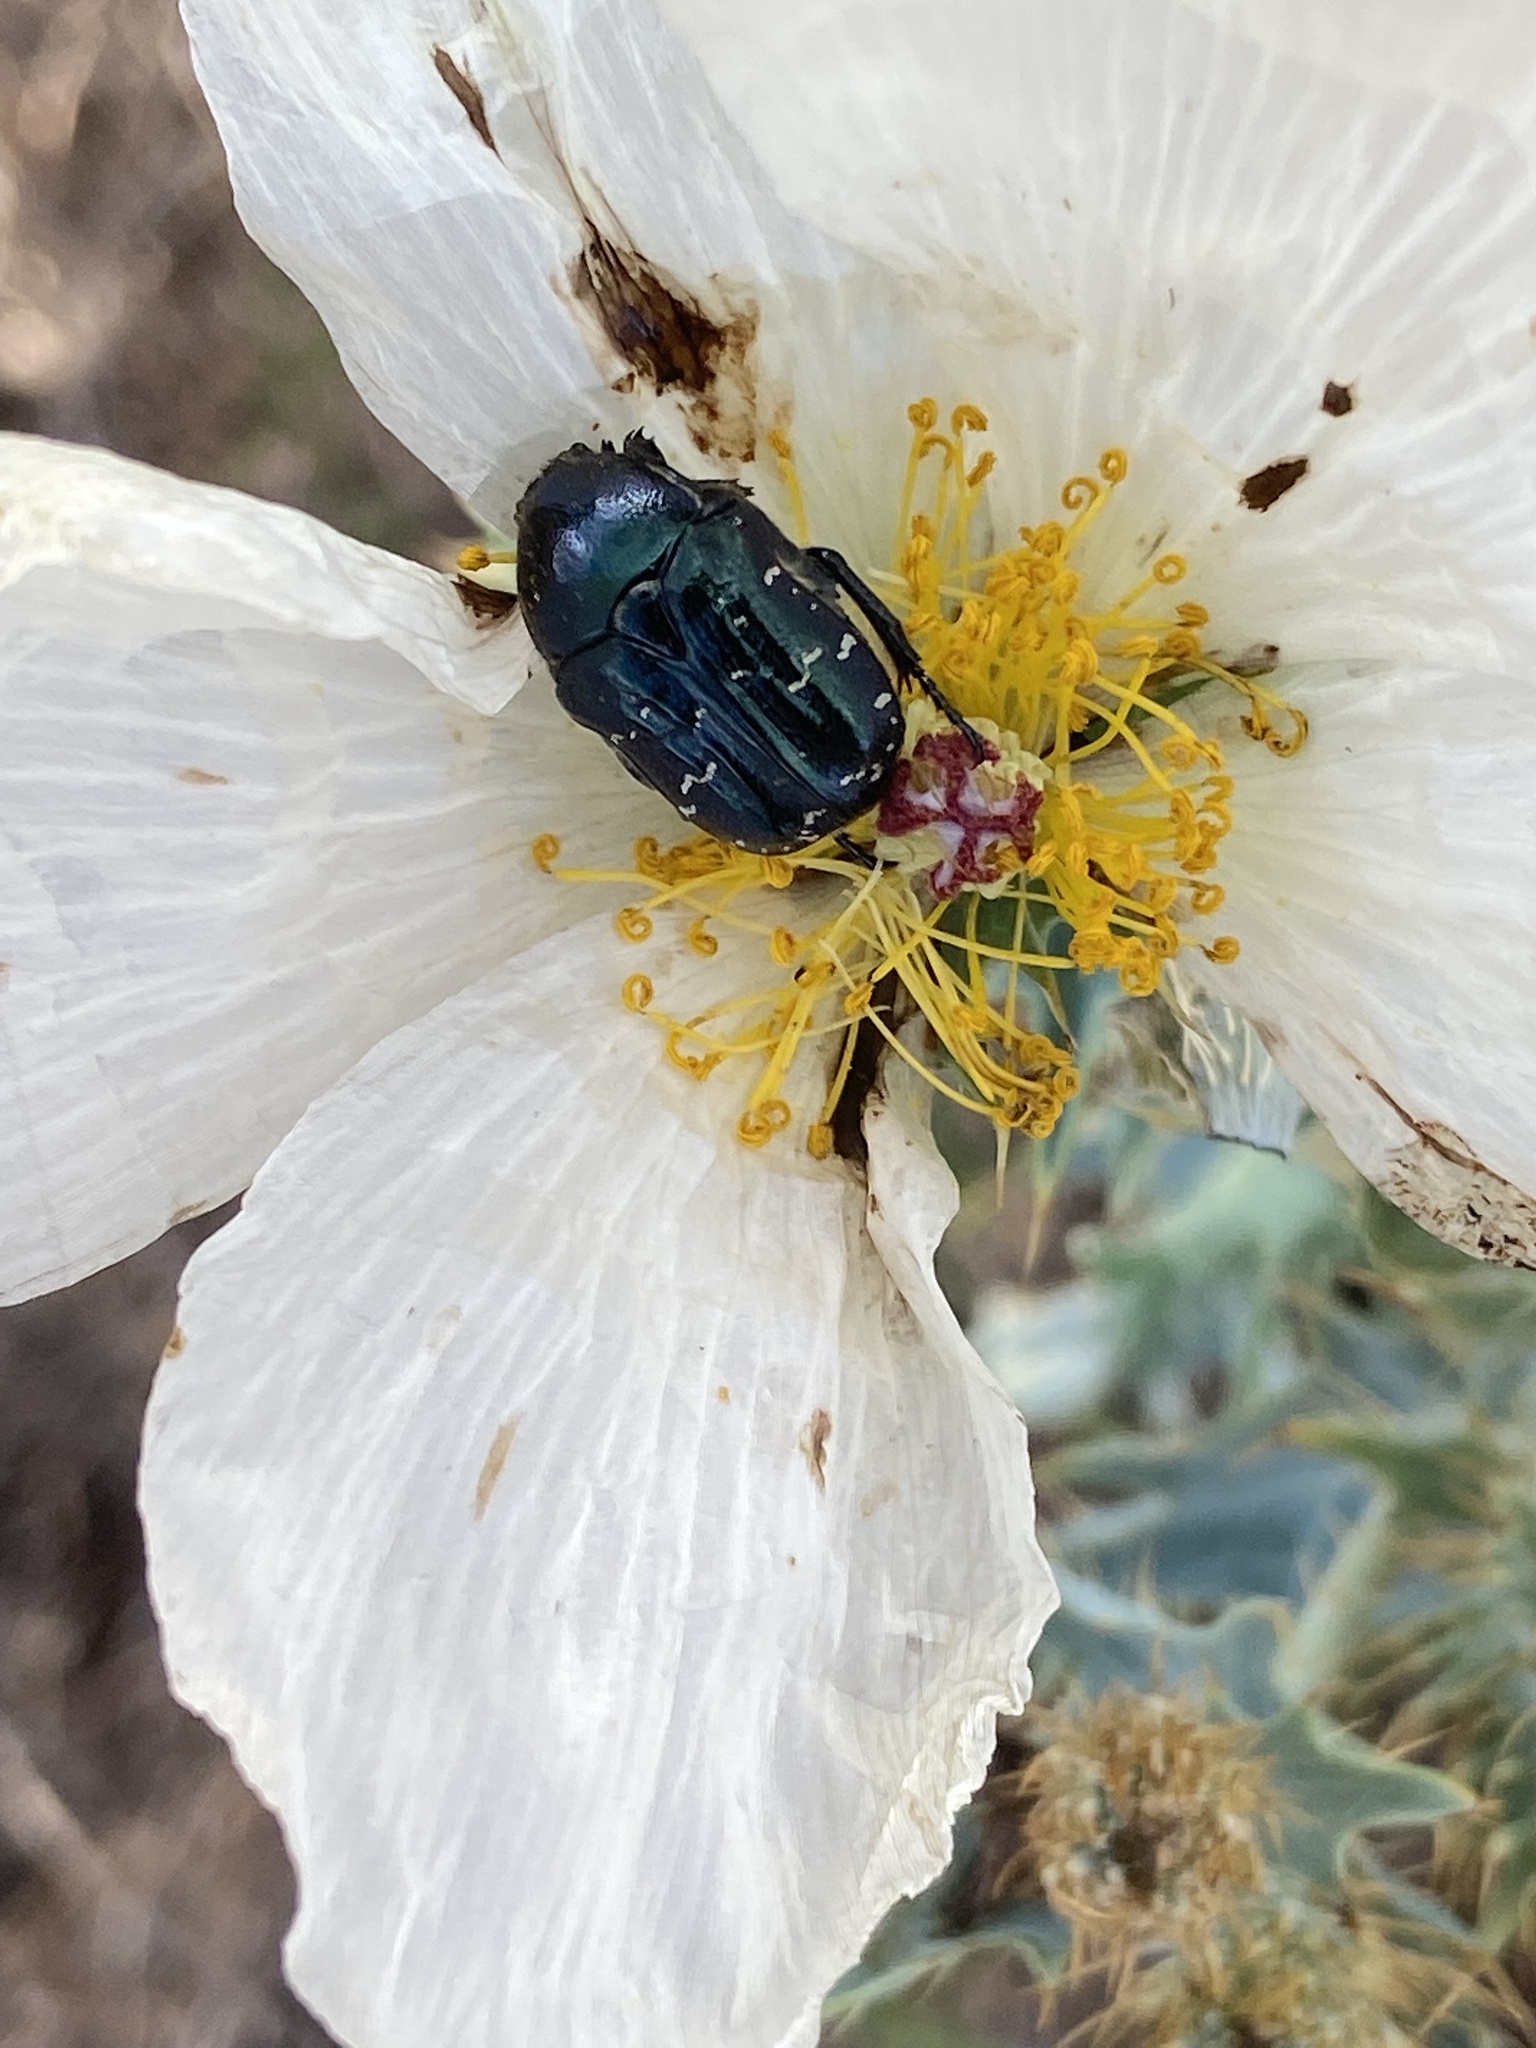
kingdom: Animalia
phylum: Arthropoda
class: Insecta
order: Coleoptera
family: Scarabaeidae
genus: Euphoria
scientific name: Euphoria sepulcralis
